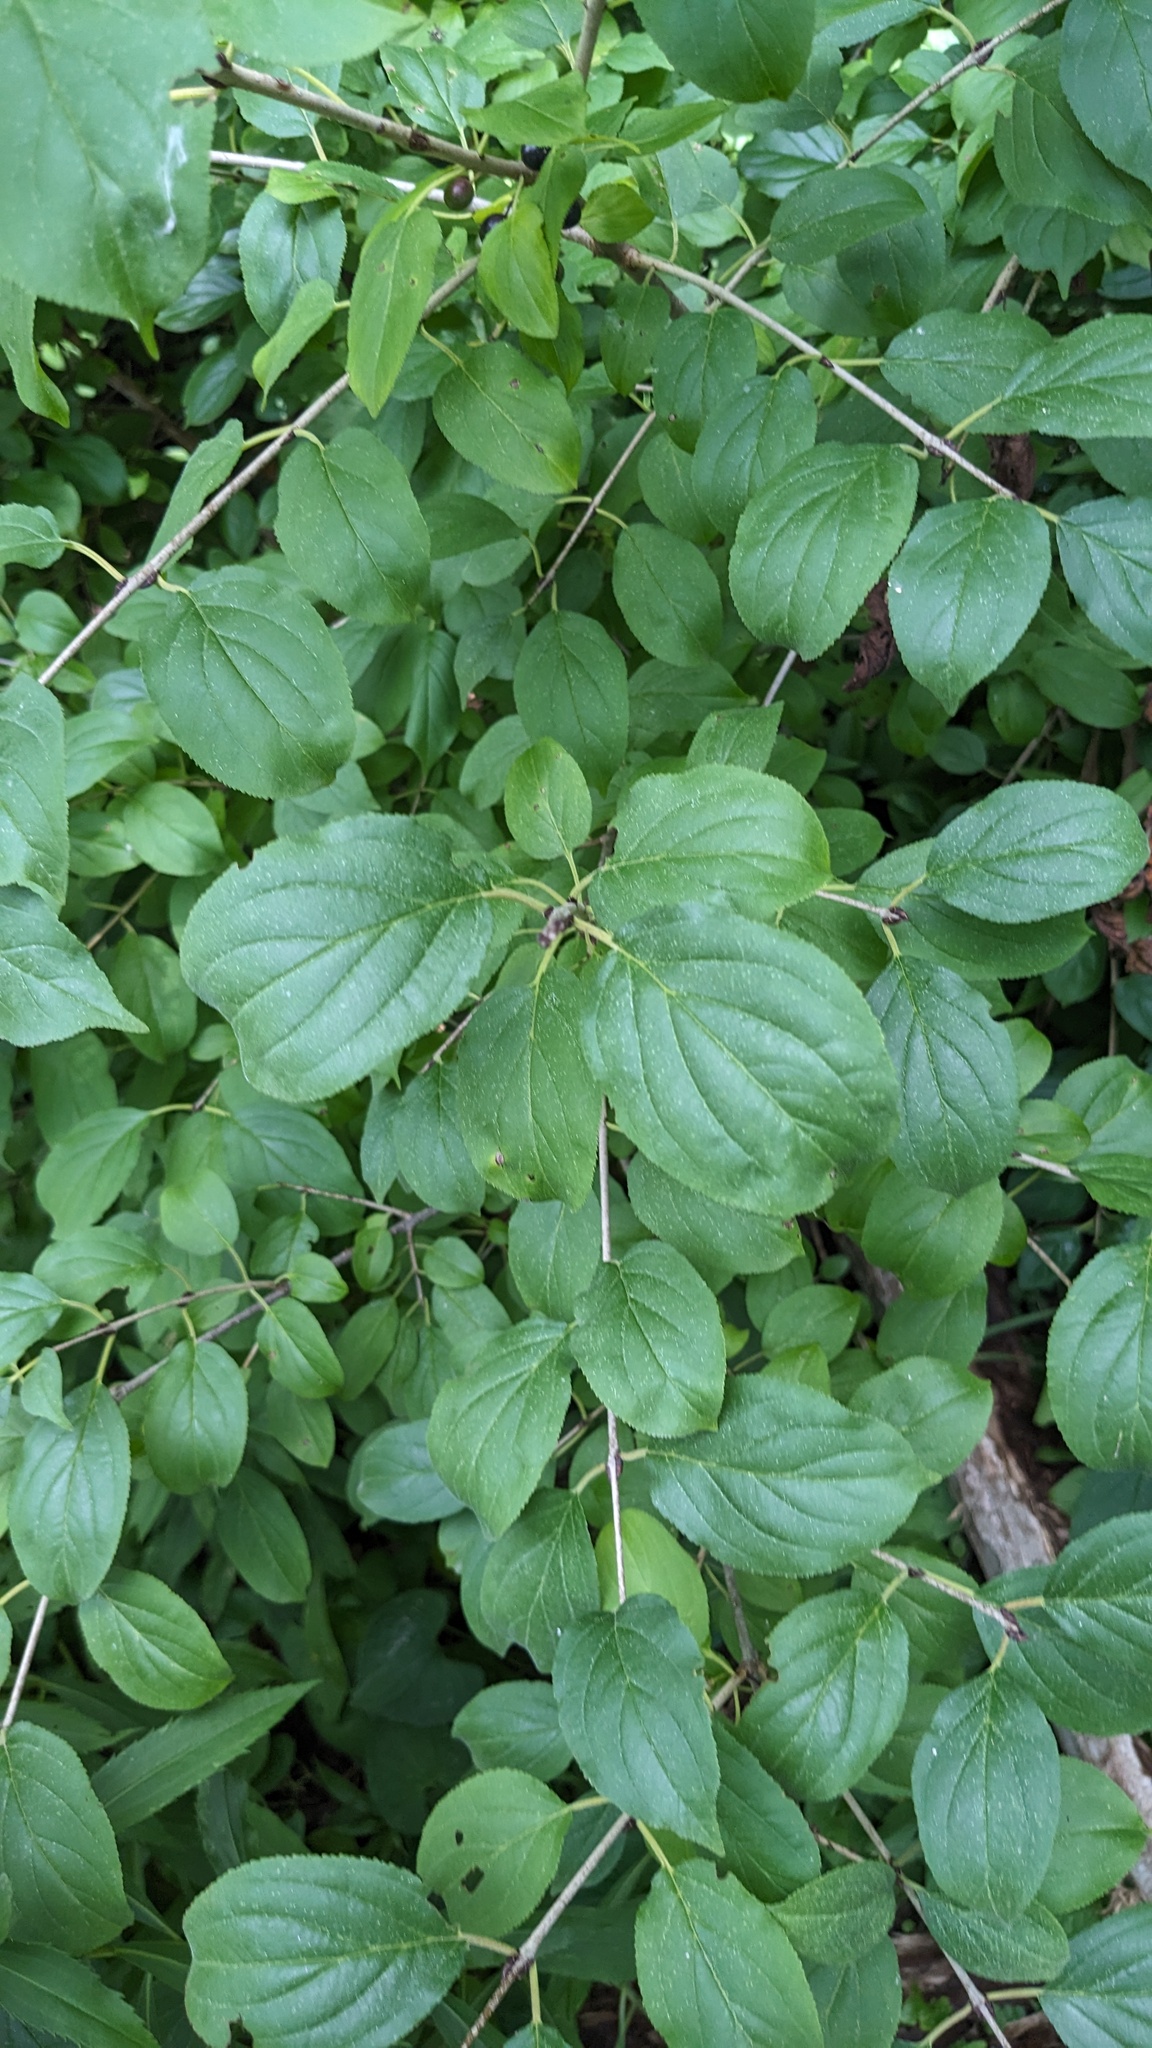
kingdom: Plantae
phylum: Tracheophyta
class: Magnoliopsida
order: Rosales
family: Rhamnaceae
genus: Rhamnus
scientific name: Rhamnus cathartica
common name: Common buckthorn
